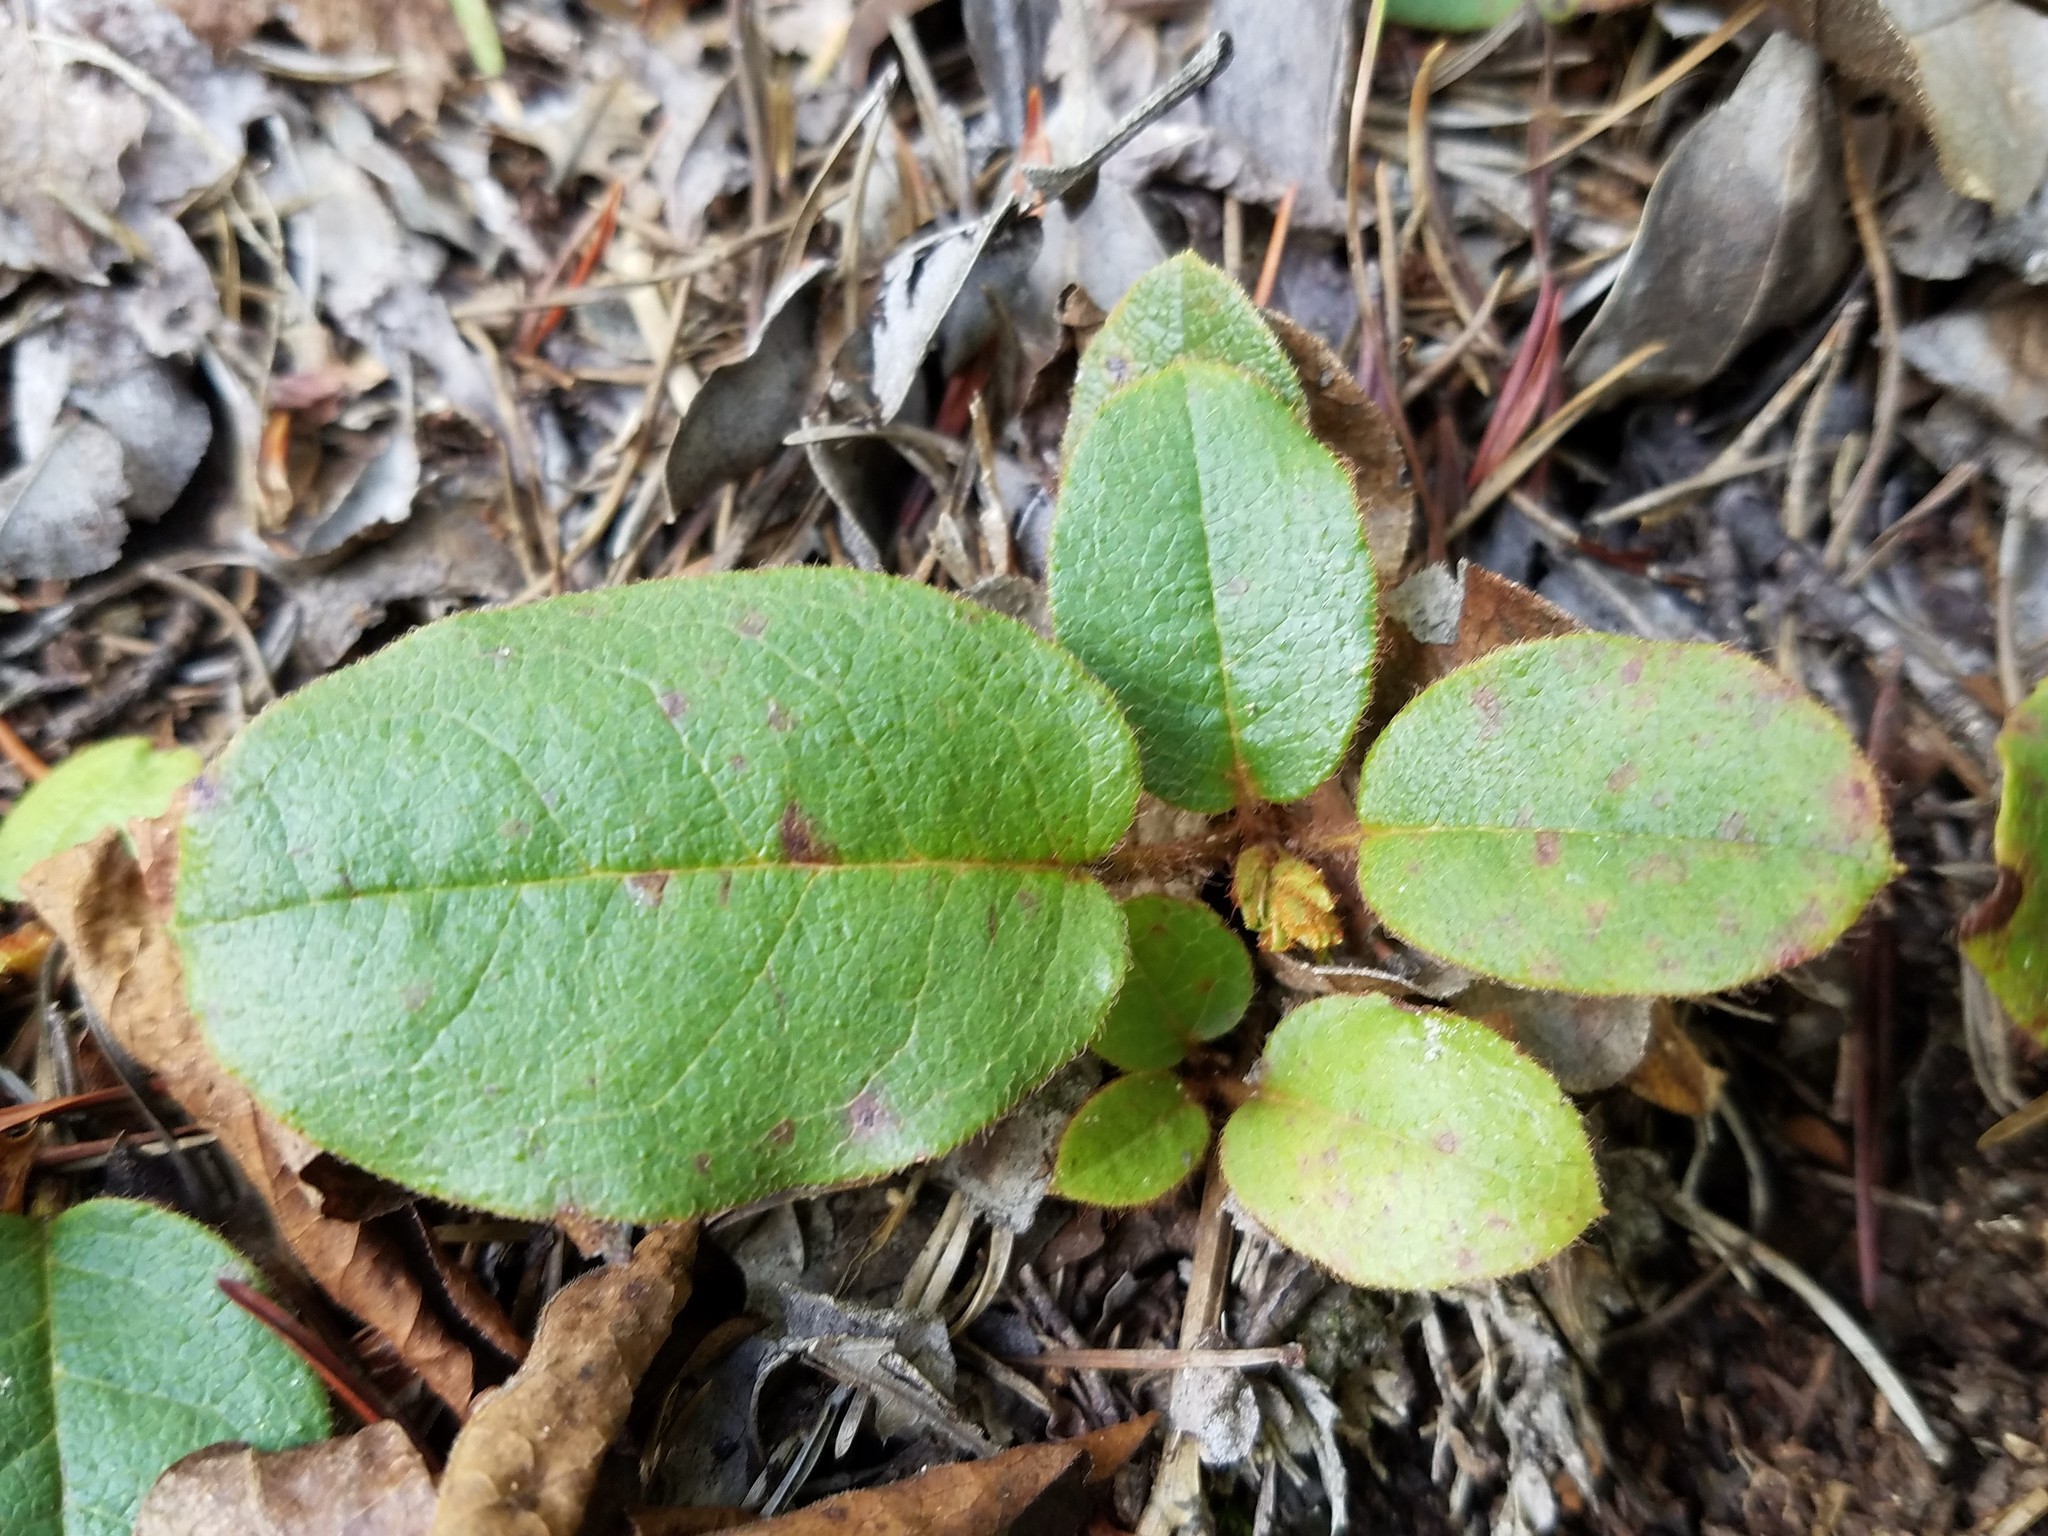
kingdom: Plantae
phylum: Tracheophyta
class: Magnoliopsida
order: Ericales
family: Ericaceae
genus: Epigaea
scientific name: Epigaea repens
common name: Gravelroot
